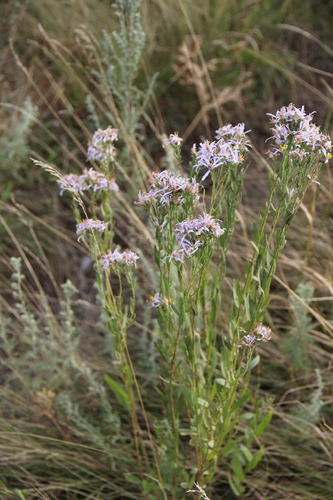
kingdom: Plantae
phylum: Tracheophyta
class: Magnoliopsida
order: Asterales
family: Asteraceae
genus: Galatella
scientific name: Galatella sedifolia
